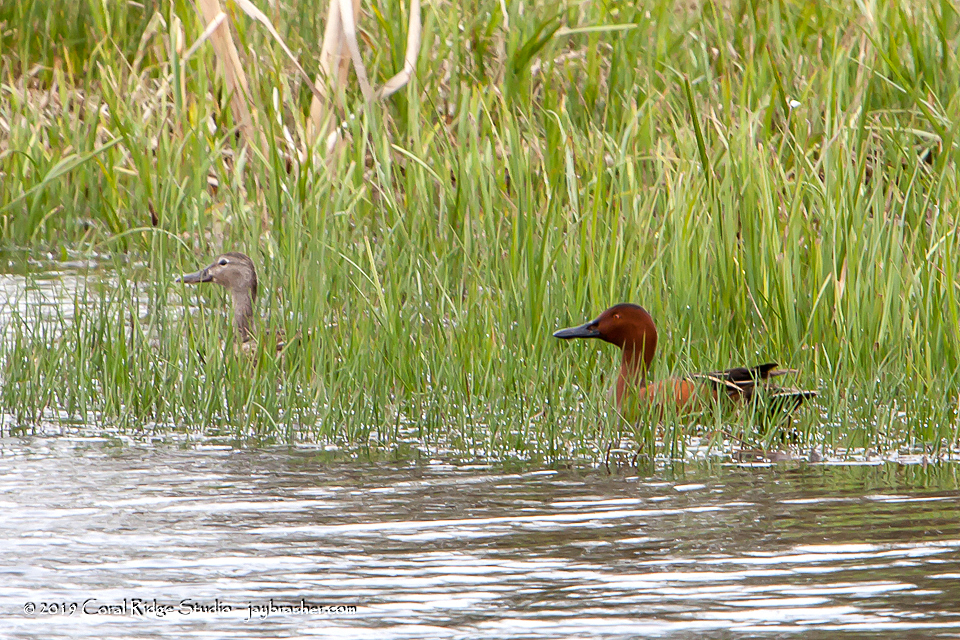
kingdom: Animalia
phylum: Chordata
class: Aves
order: Anseriformes
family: Anatidae
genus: Spatula
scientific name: Spatula cyanoptera
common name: Cinnamon teal
